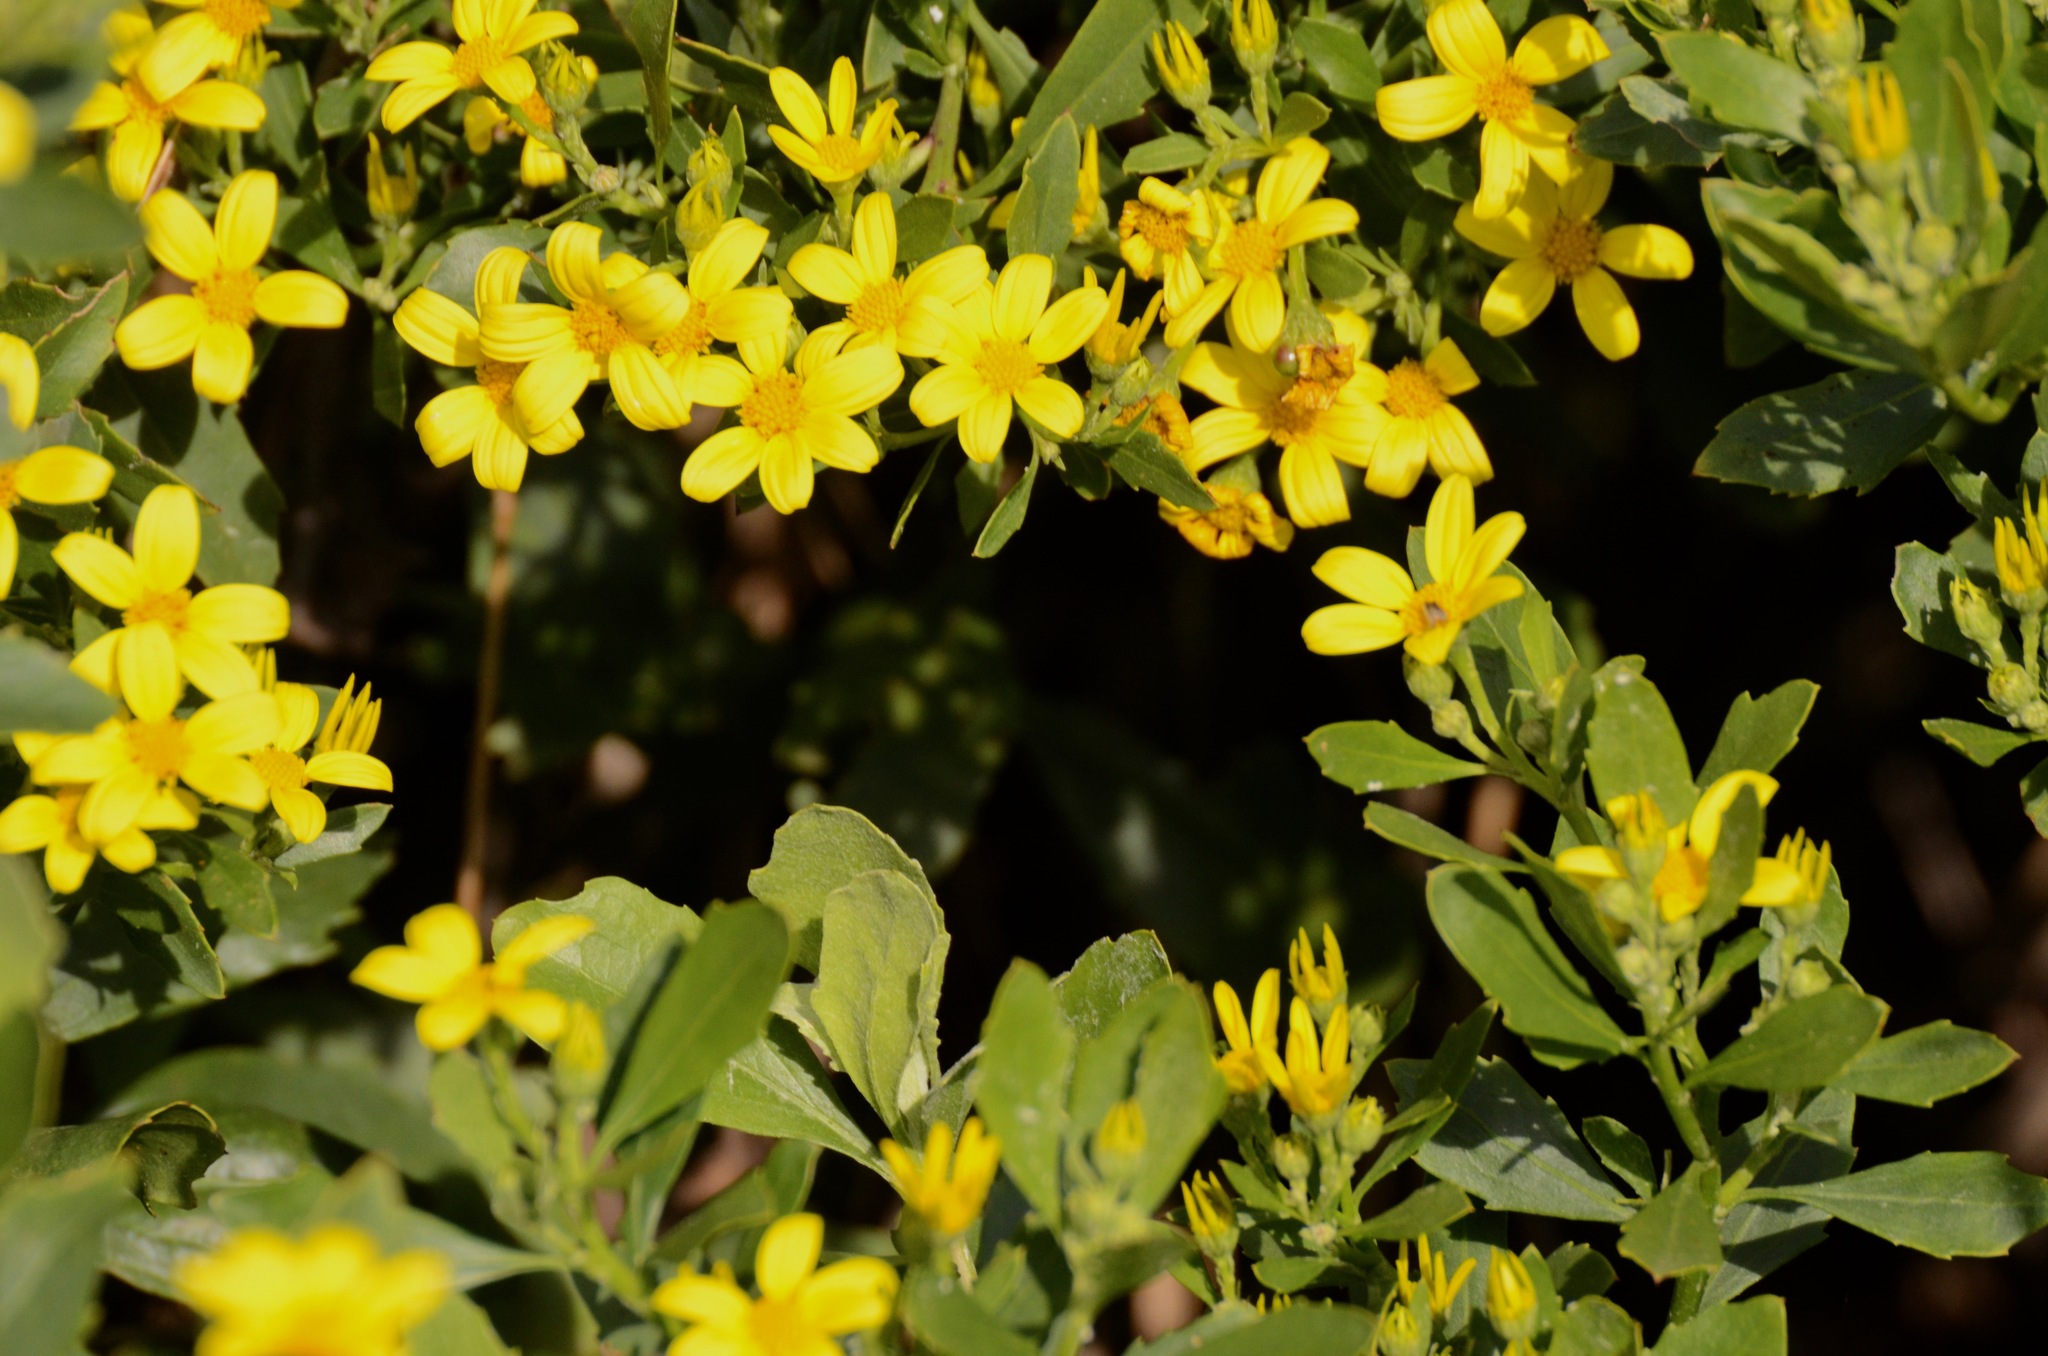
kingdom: Plantae
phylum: Tracheophyta
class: Magnoliopsida
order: Asterales
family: Asteraceae
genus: Osteospermum
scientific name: Osteospermum moniliferum
